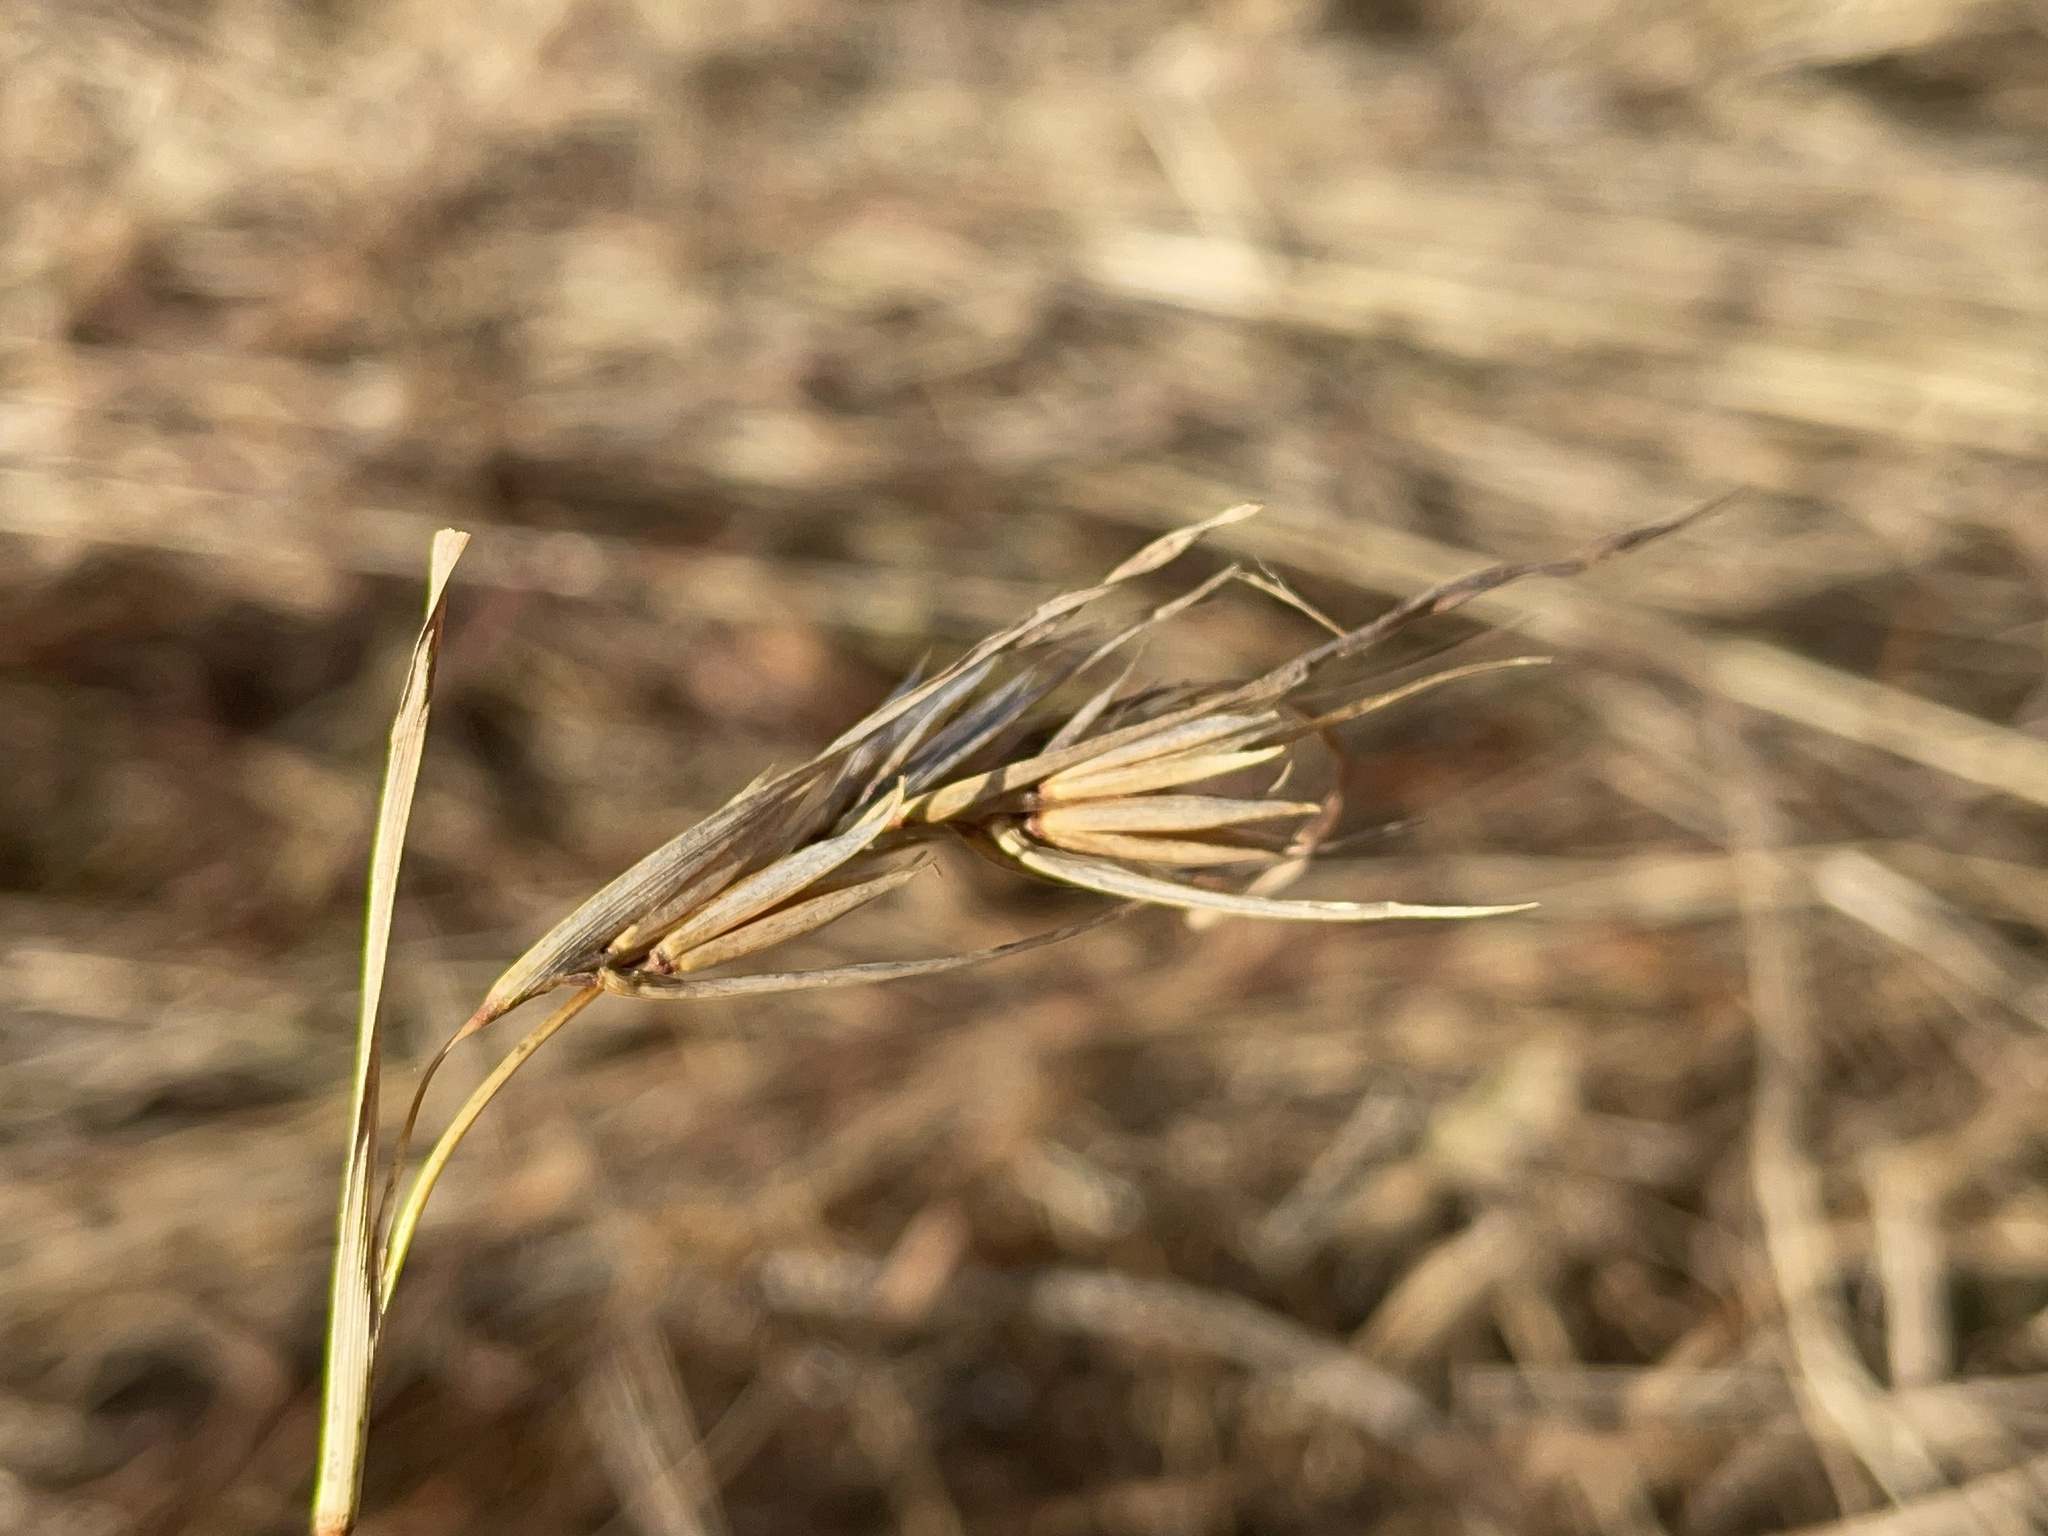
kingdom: Plantae
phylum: Tracheophyta
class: Liliopsida
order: Poales
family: Poaceae
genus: Themeda
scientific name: Themeda triandra
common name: Kangaroo grass
